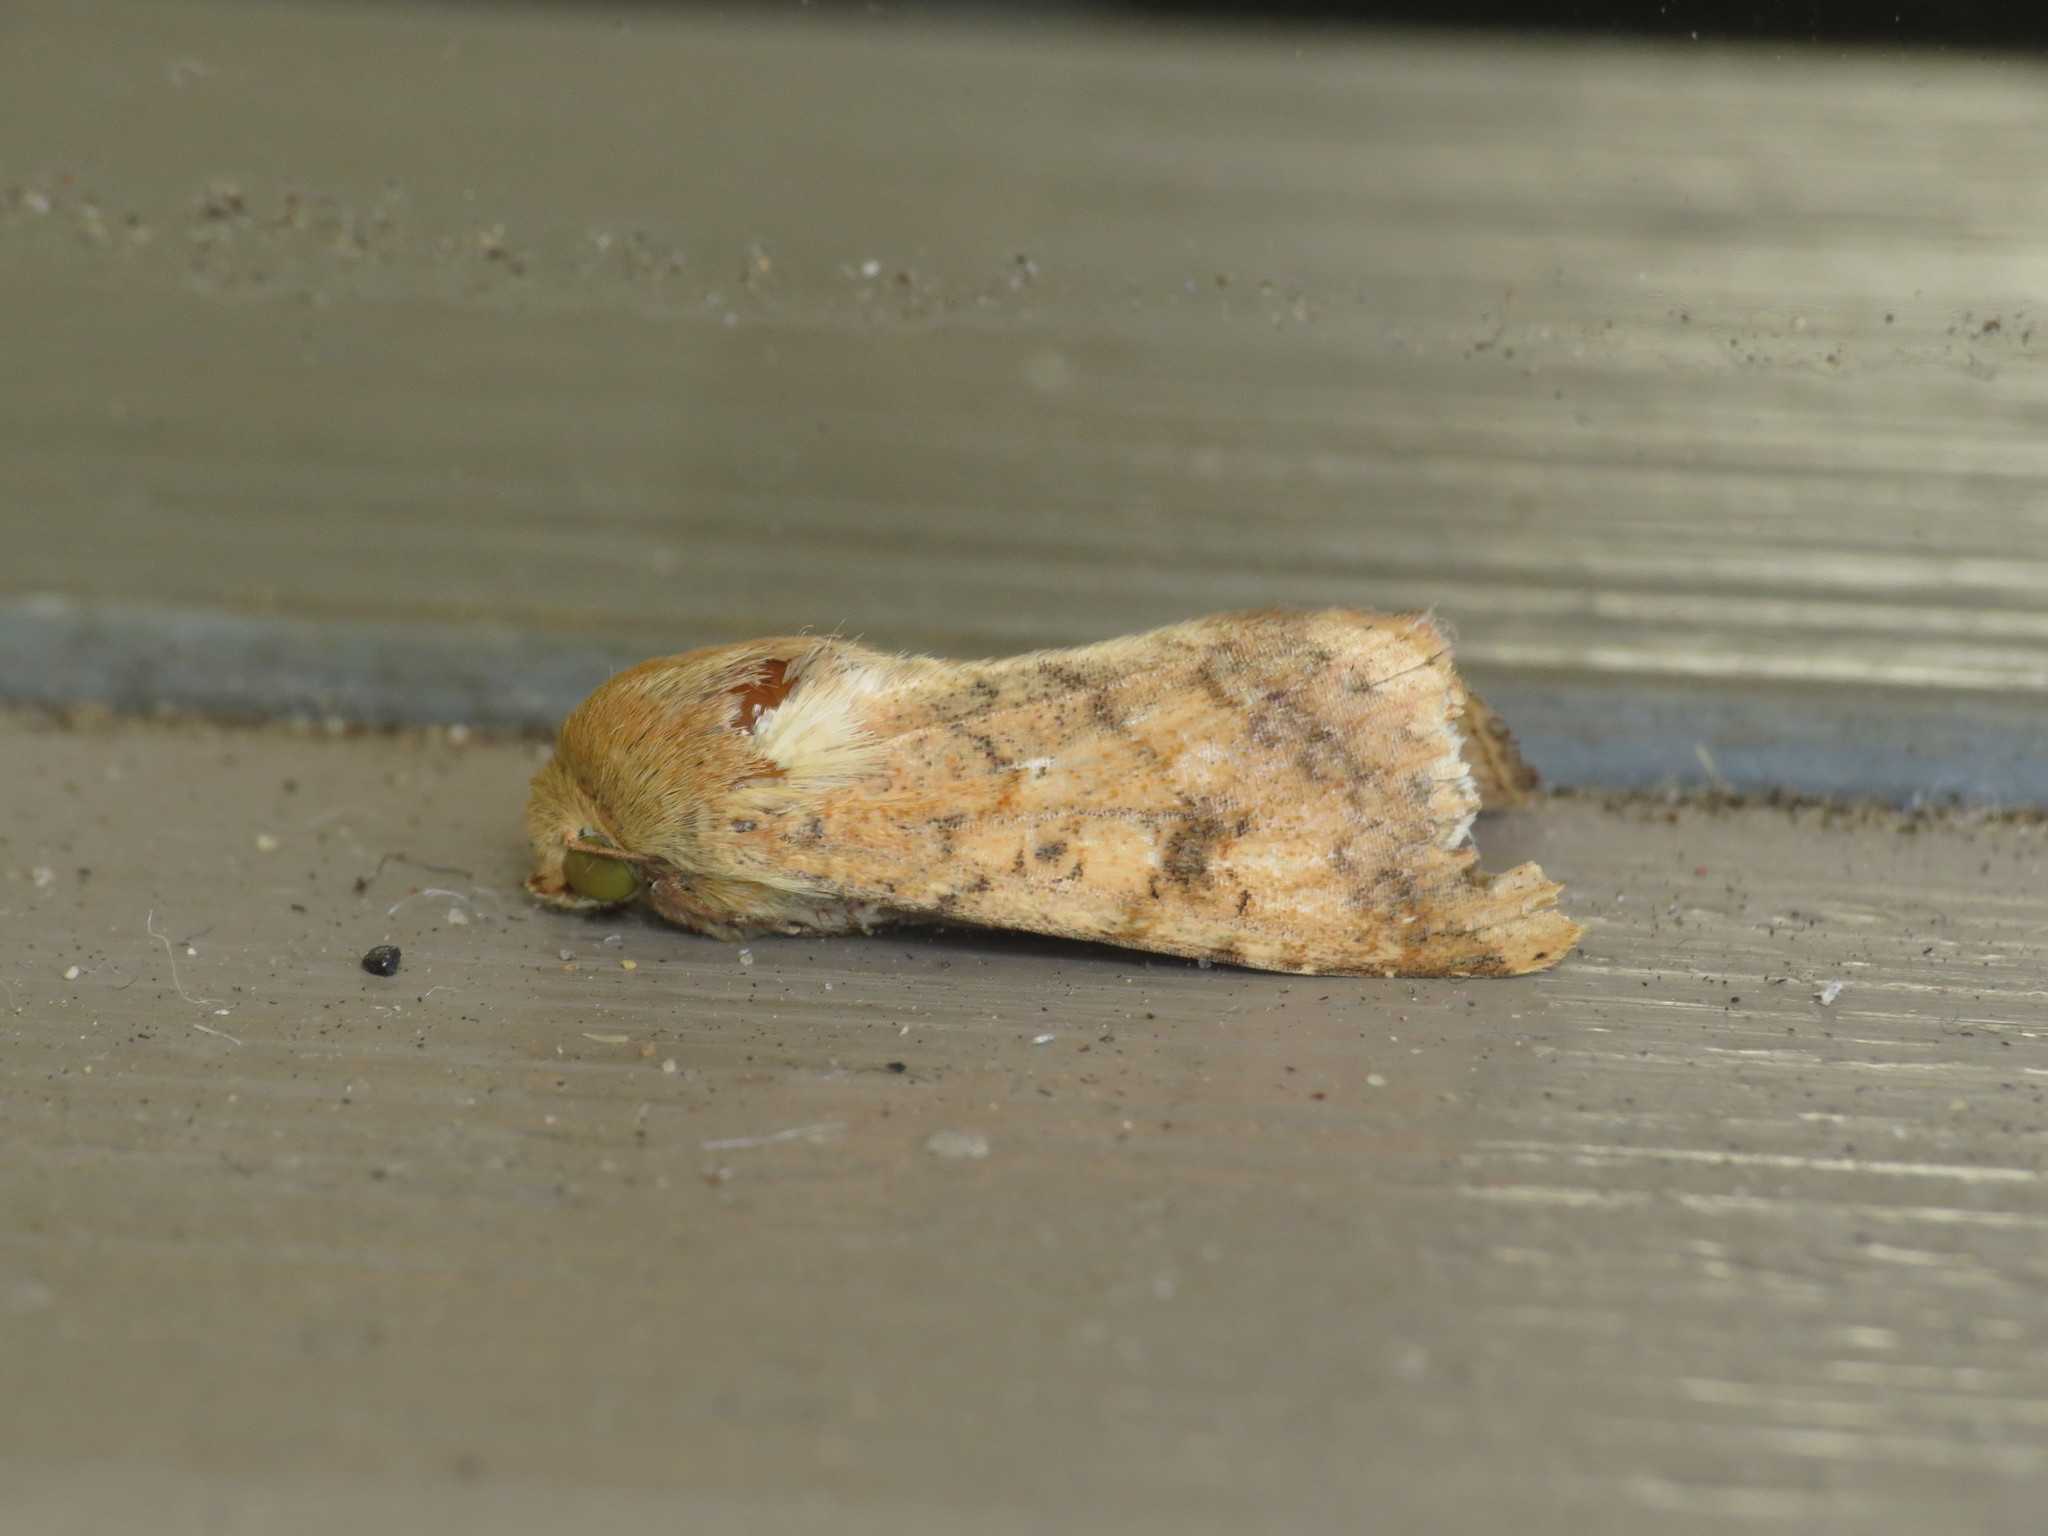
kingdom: Animalia
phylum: Arthropoda
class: Insecta
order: Lepidoptera
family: Noctuidae
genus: Helicoverpa
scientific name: Helicoverpa assulta
